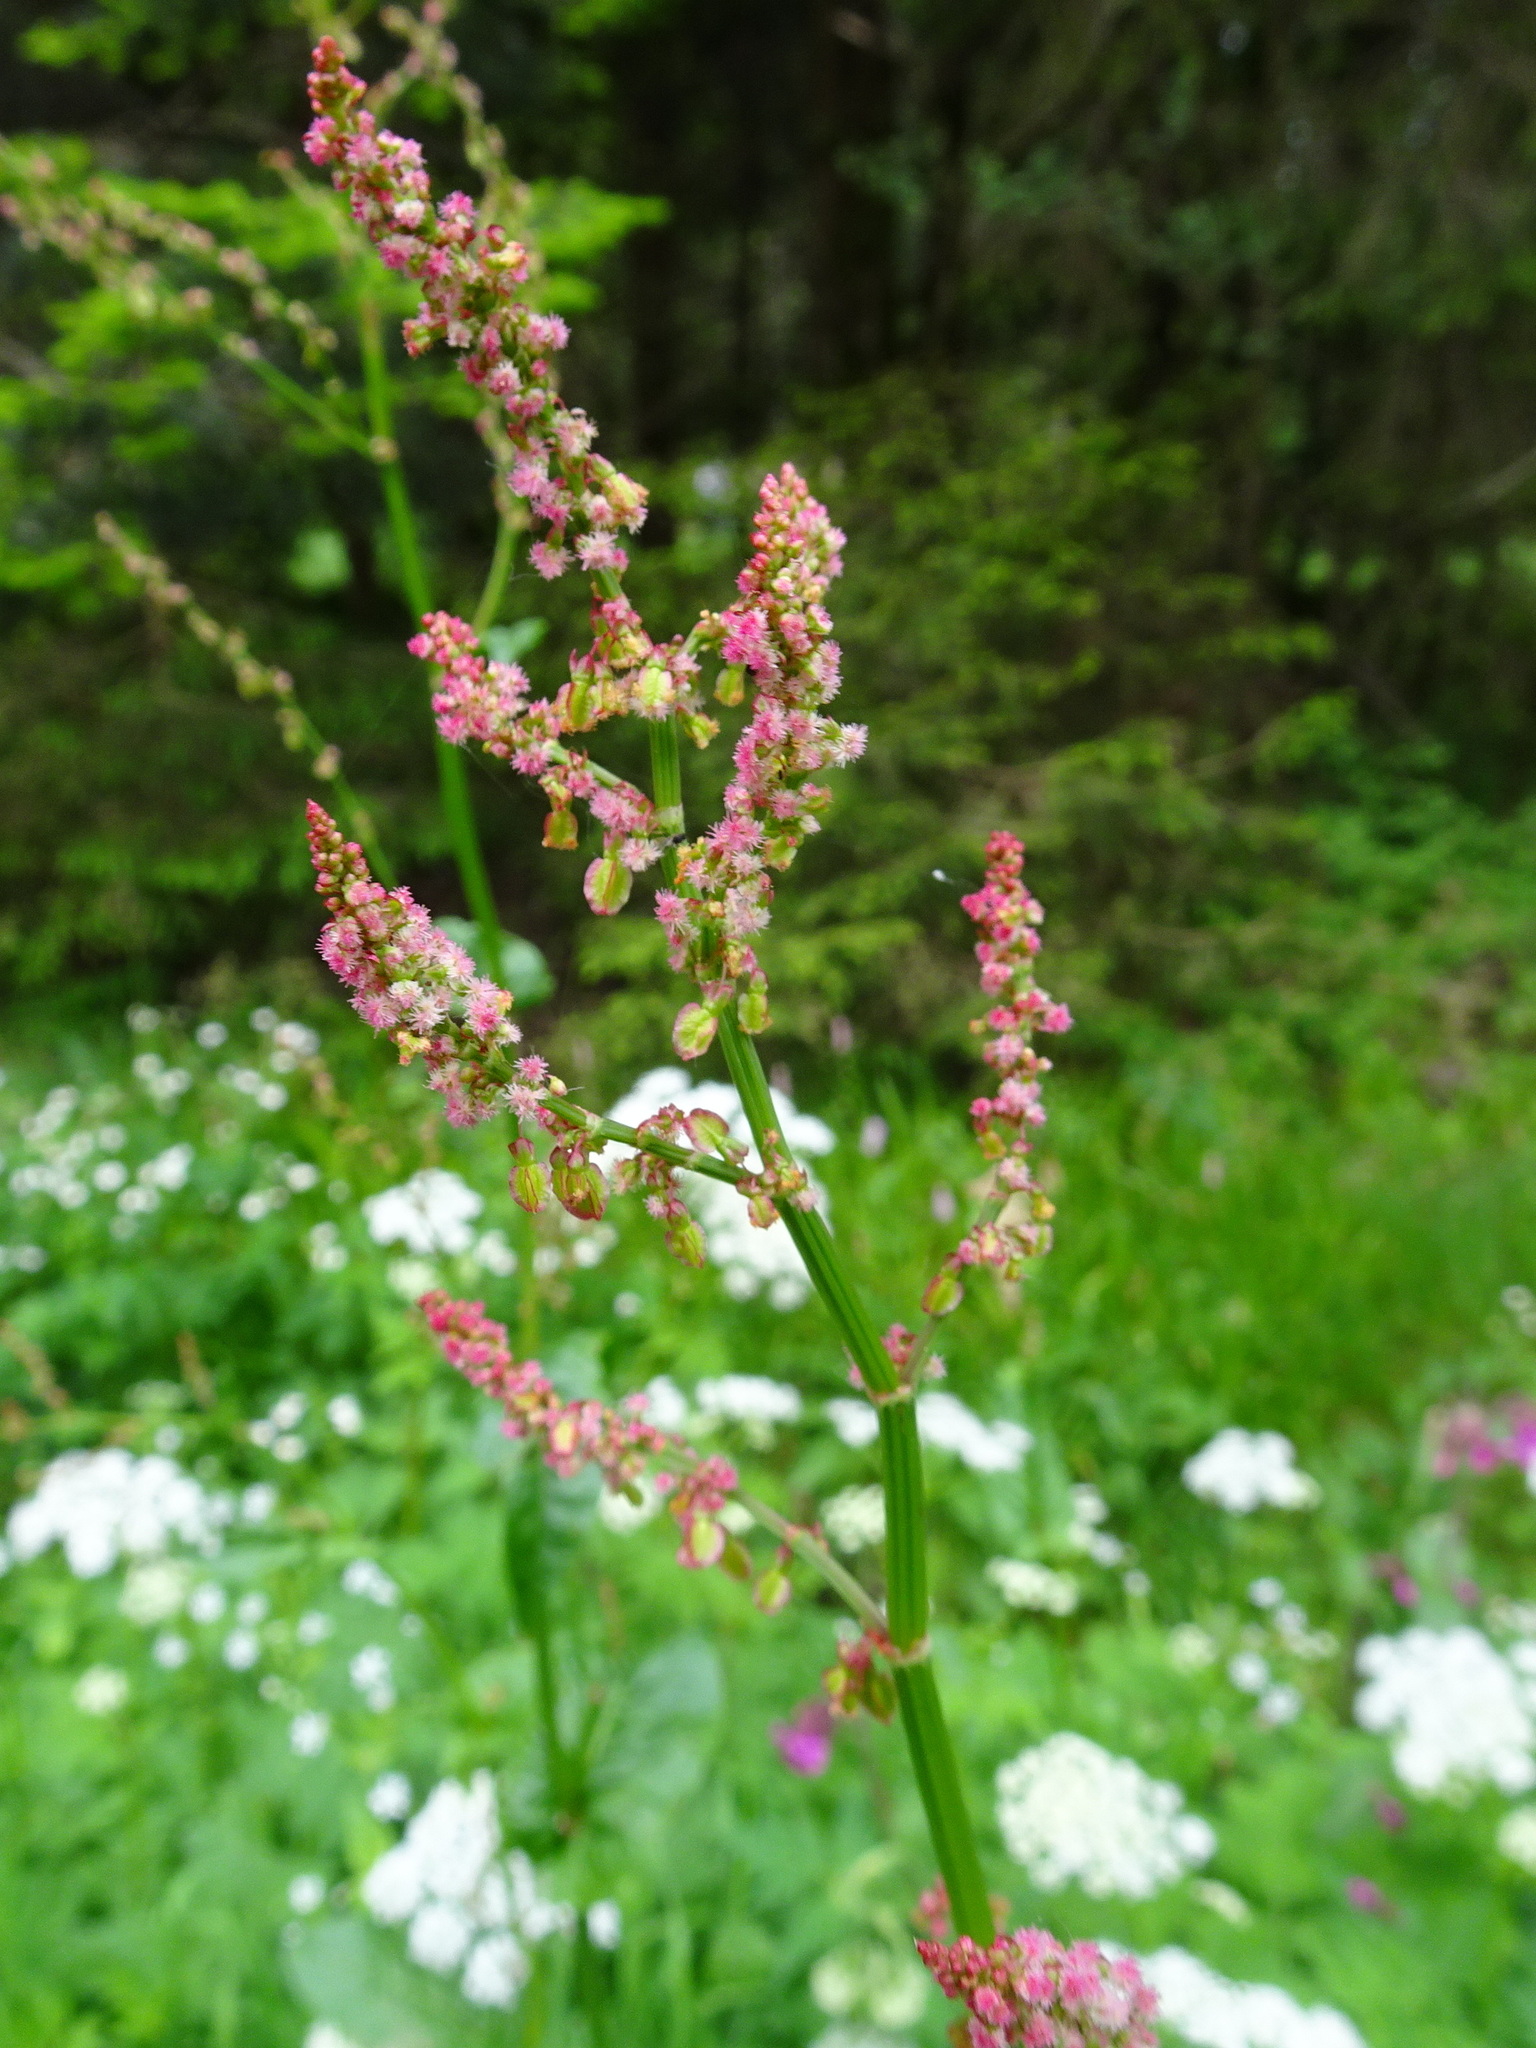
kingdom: Plantae
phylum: Tracheophyta
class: Magnoliopsida
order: Caryophyllales
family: Polygonaceae
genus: Rumex
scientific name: Rumex arifolius
